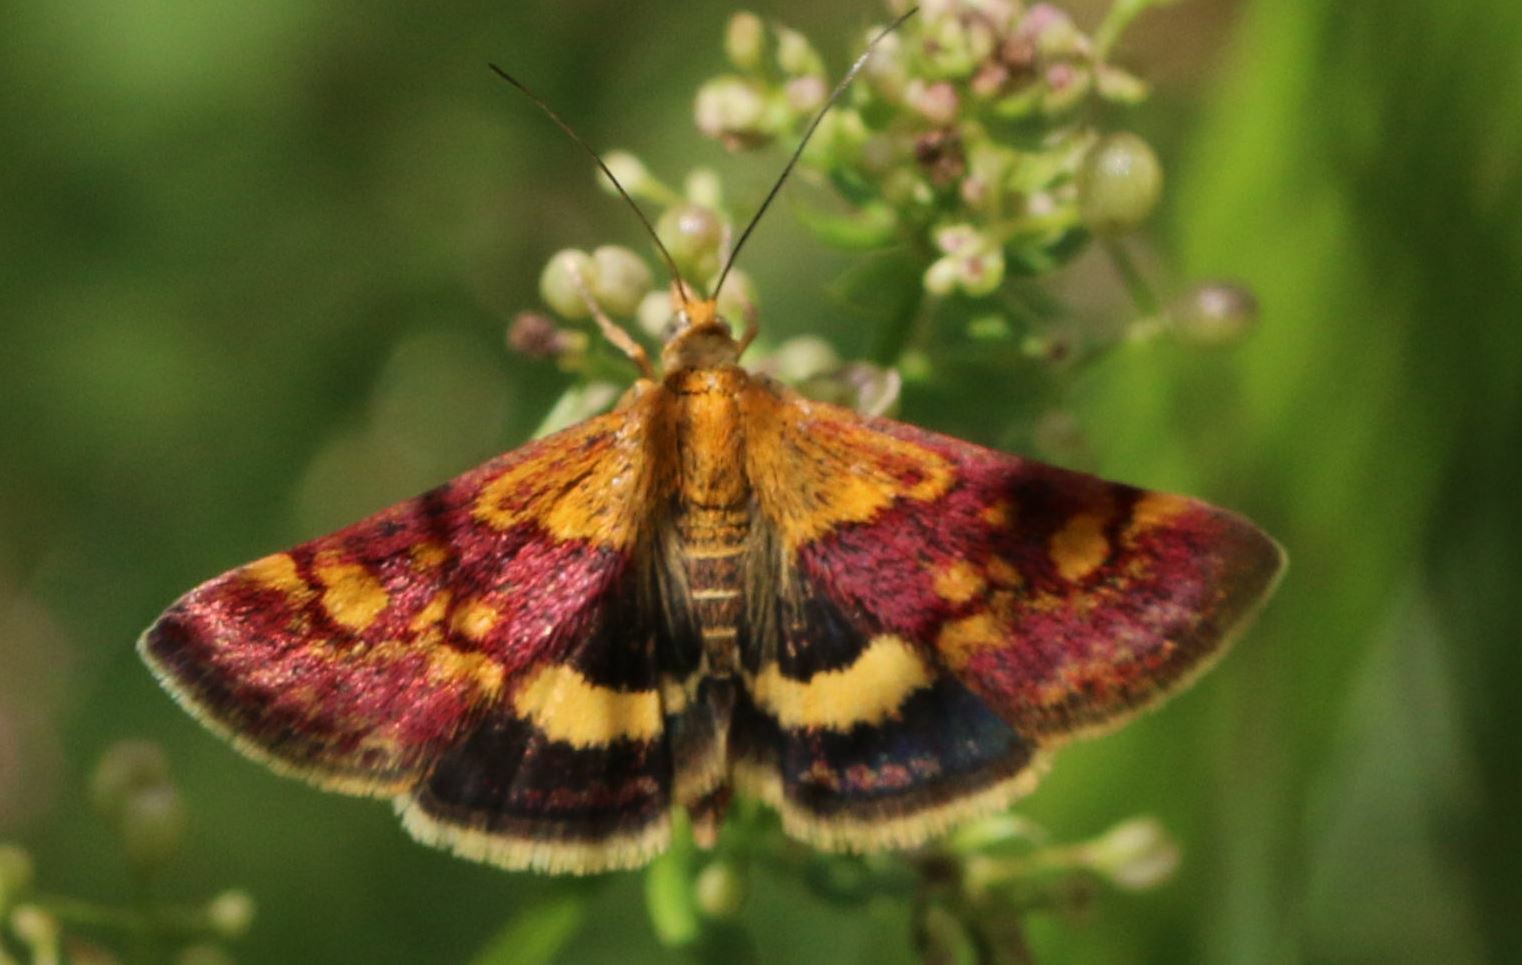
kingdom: Animalia
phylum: Arthropoda
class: Insecta
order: Lepidoptera
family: Crambidae
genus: Pyrausta
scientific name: Pyrausta aurata
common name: Small purple & gold
